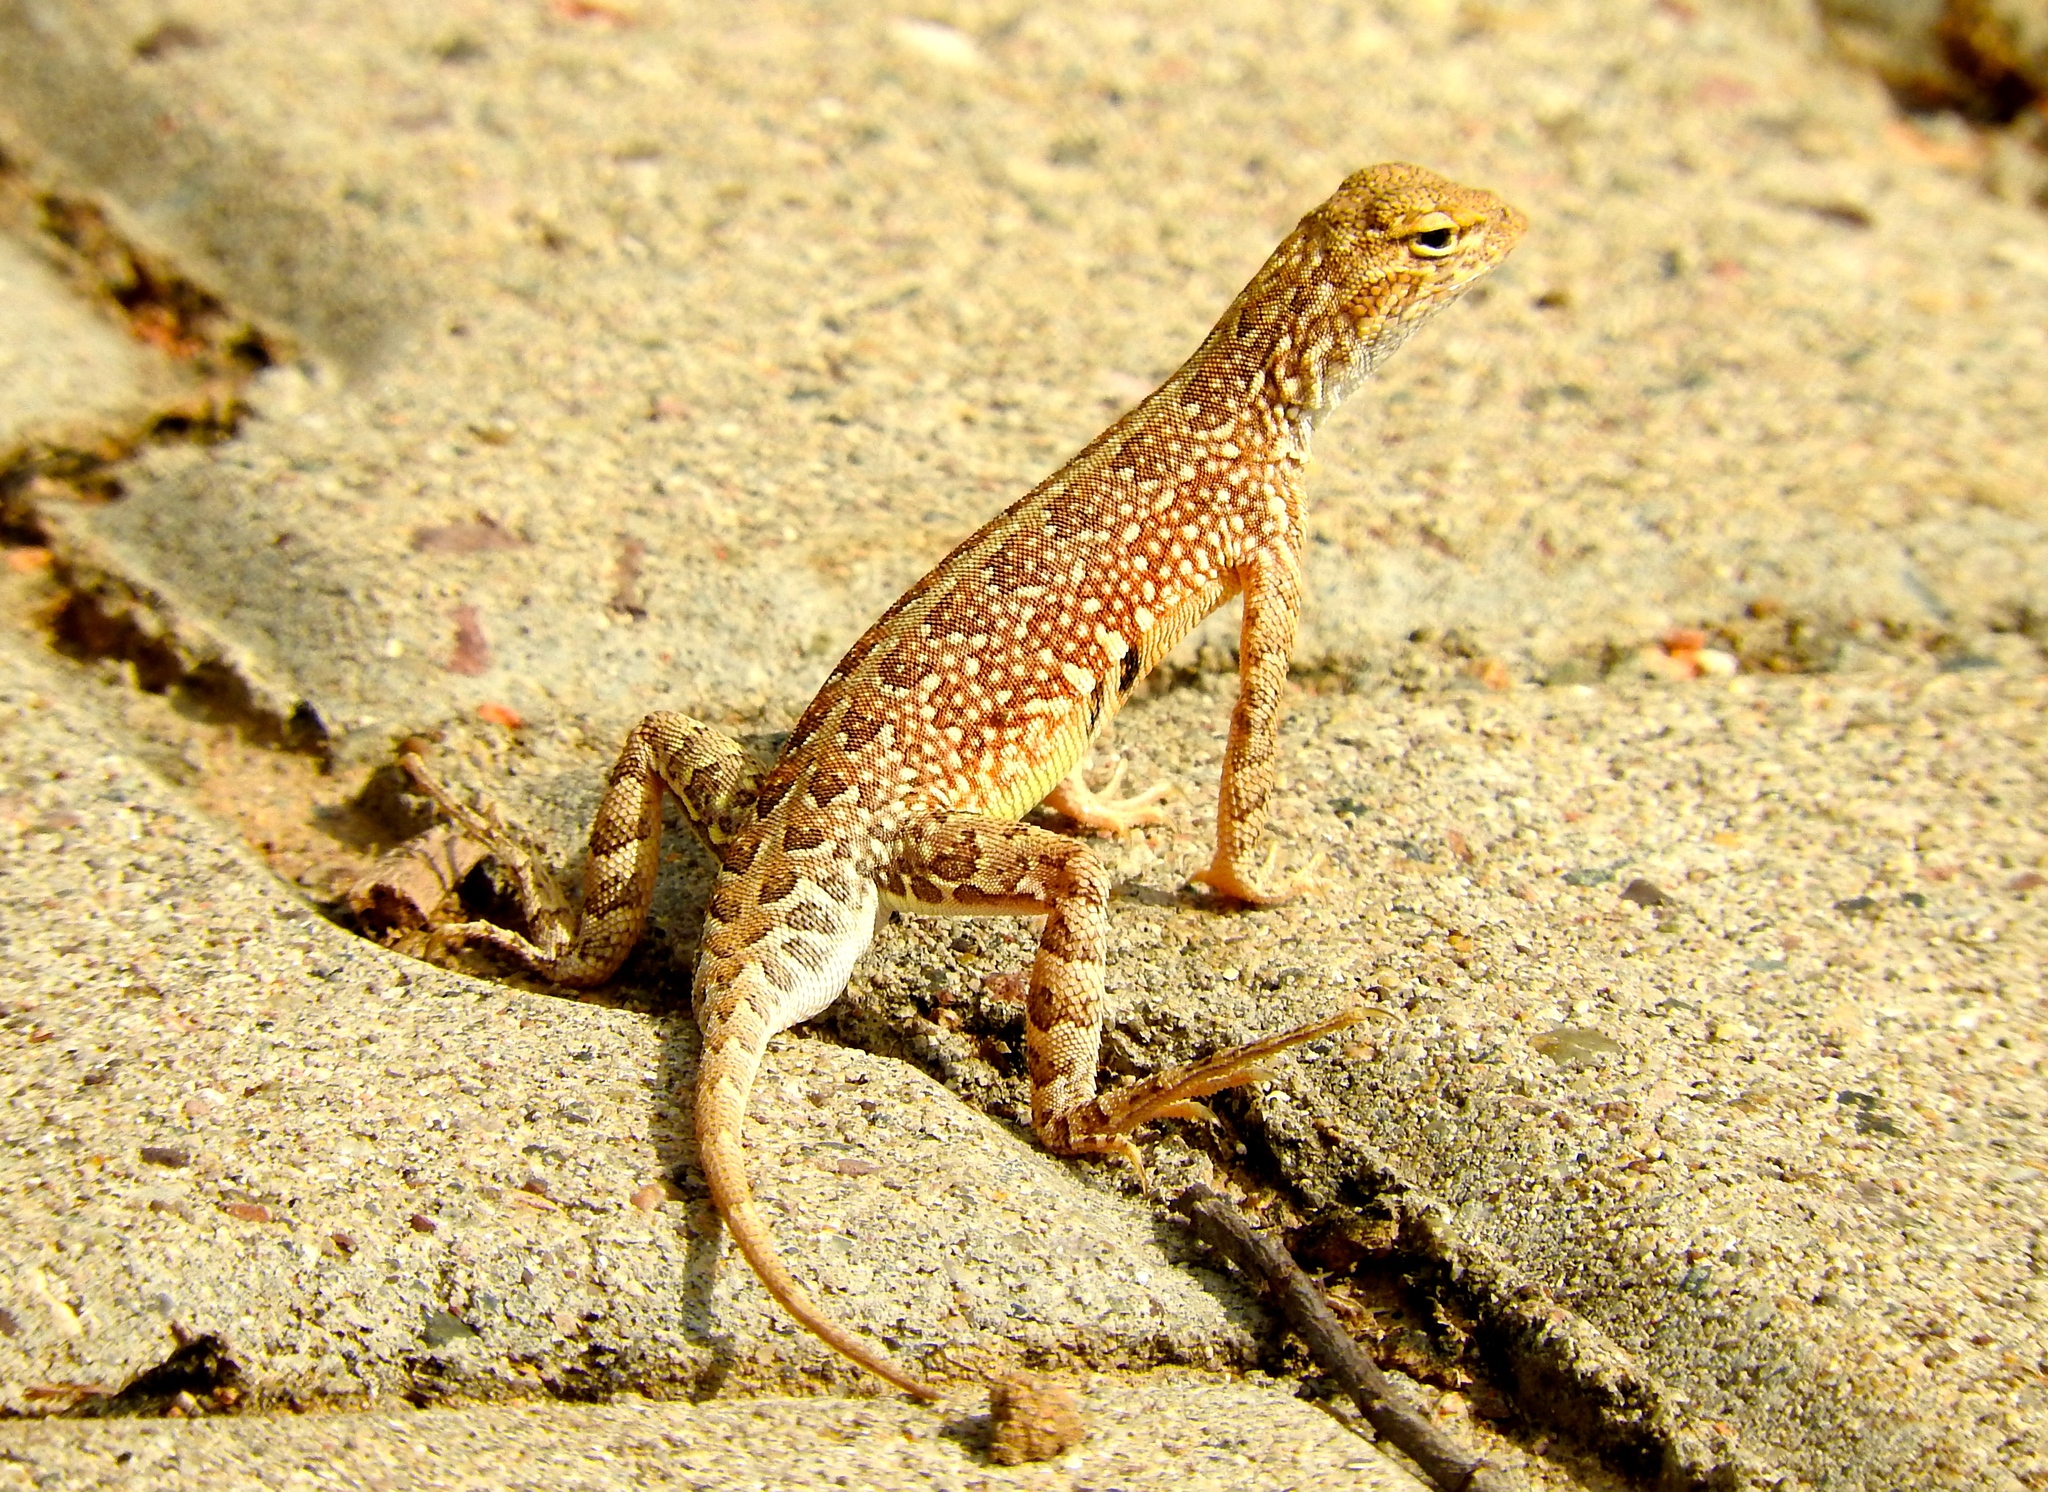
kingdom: Animalia
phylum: Chordata
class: Squamata
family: Phrynosomatidae
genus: Holbrookia
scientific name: Holbrookia elegans
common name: Elegant earless lizard
